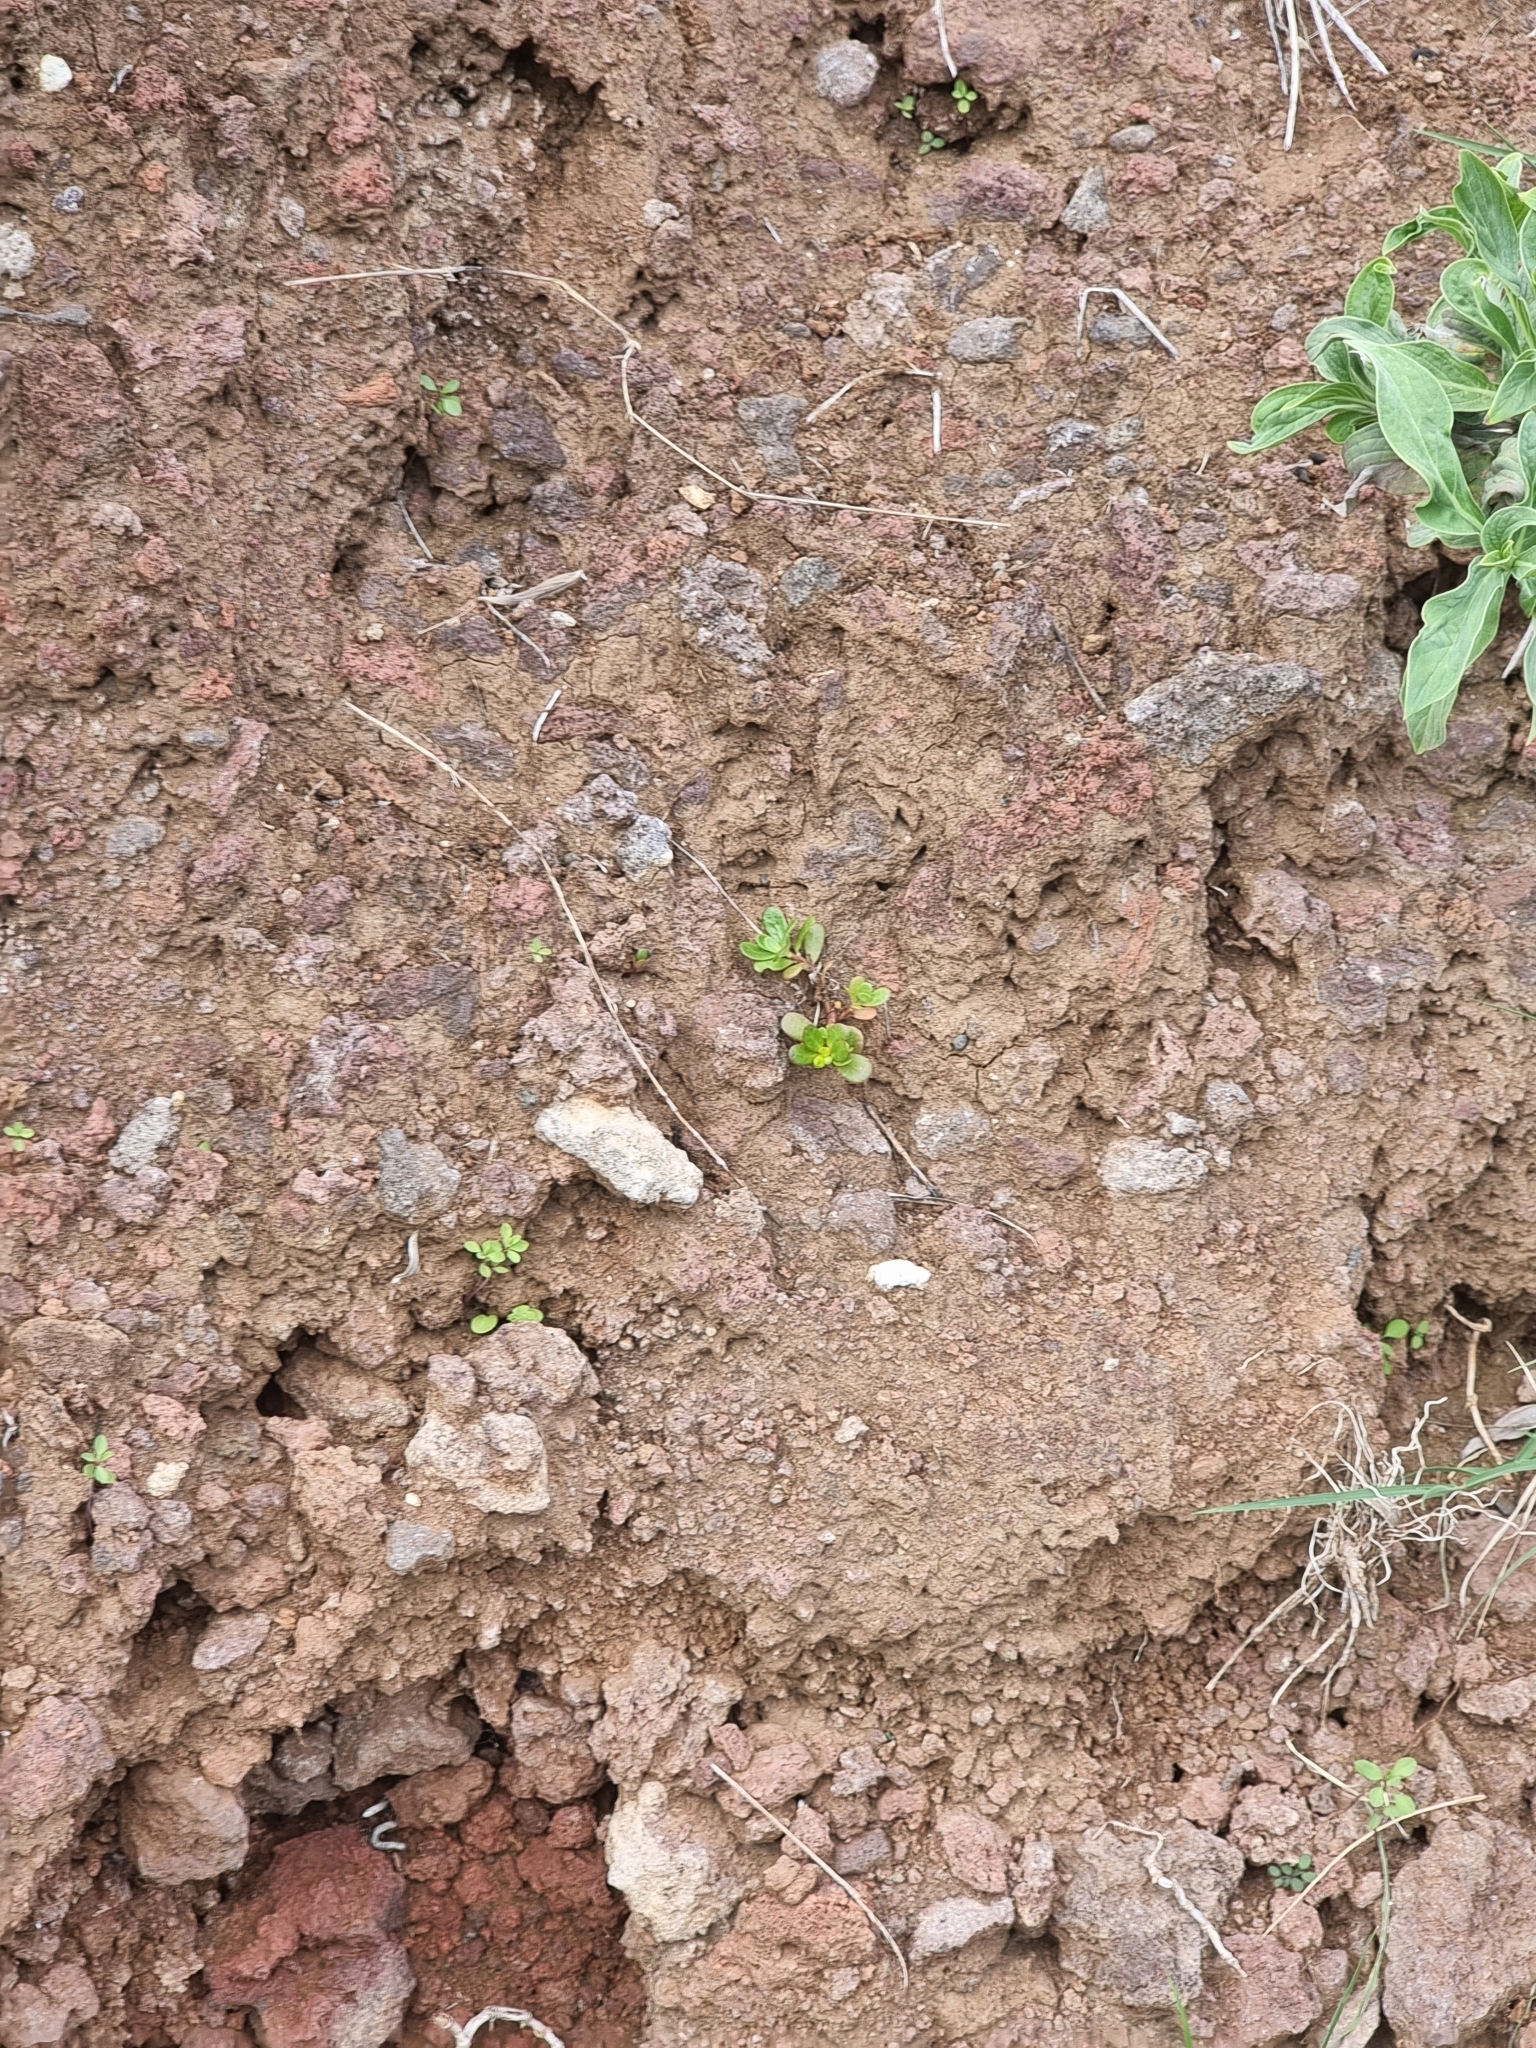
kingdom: Plantae
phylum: Tracheophyta
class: Magnoliopsida
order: Caryophyllales
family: Portulacaceae
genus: Portulaca
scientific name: Portulaca oleracea
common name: Common purslane
